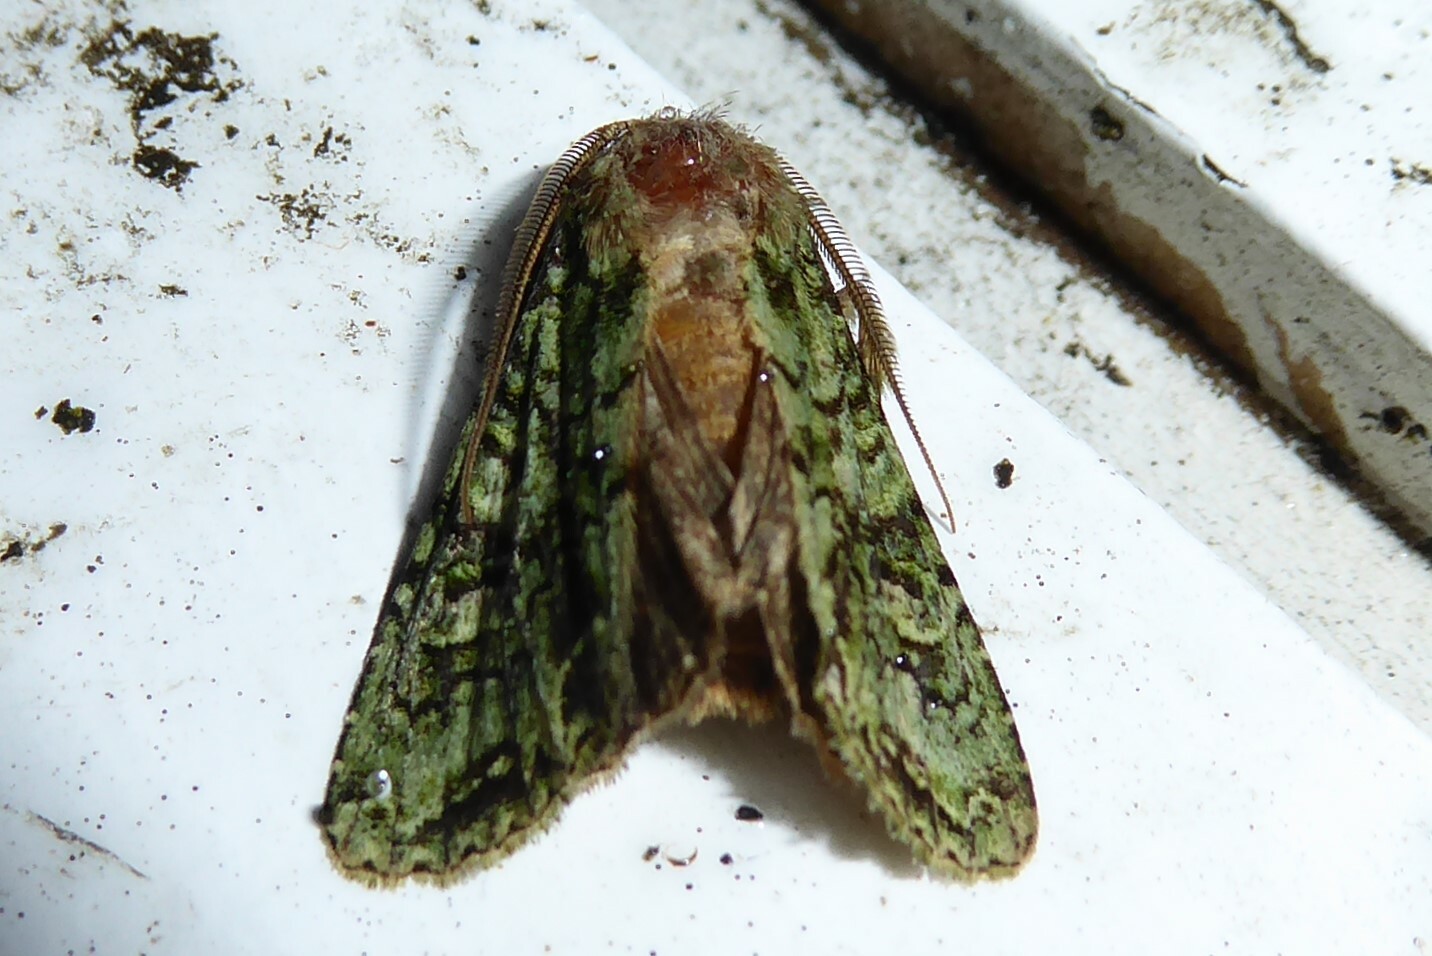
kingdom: Animalia
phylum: Arthropoda
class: Insecta
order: Lepidoptera
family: Noctuidae
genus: Ichneutica
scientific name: Ichneutica
